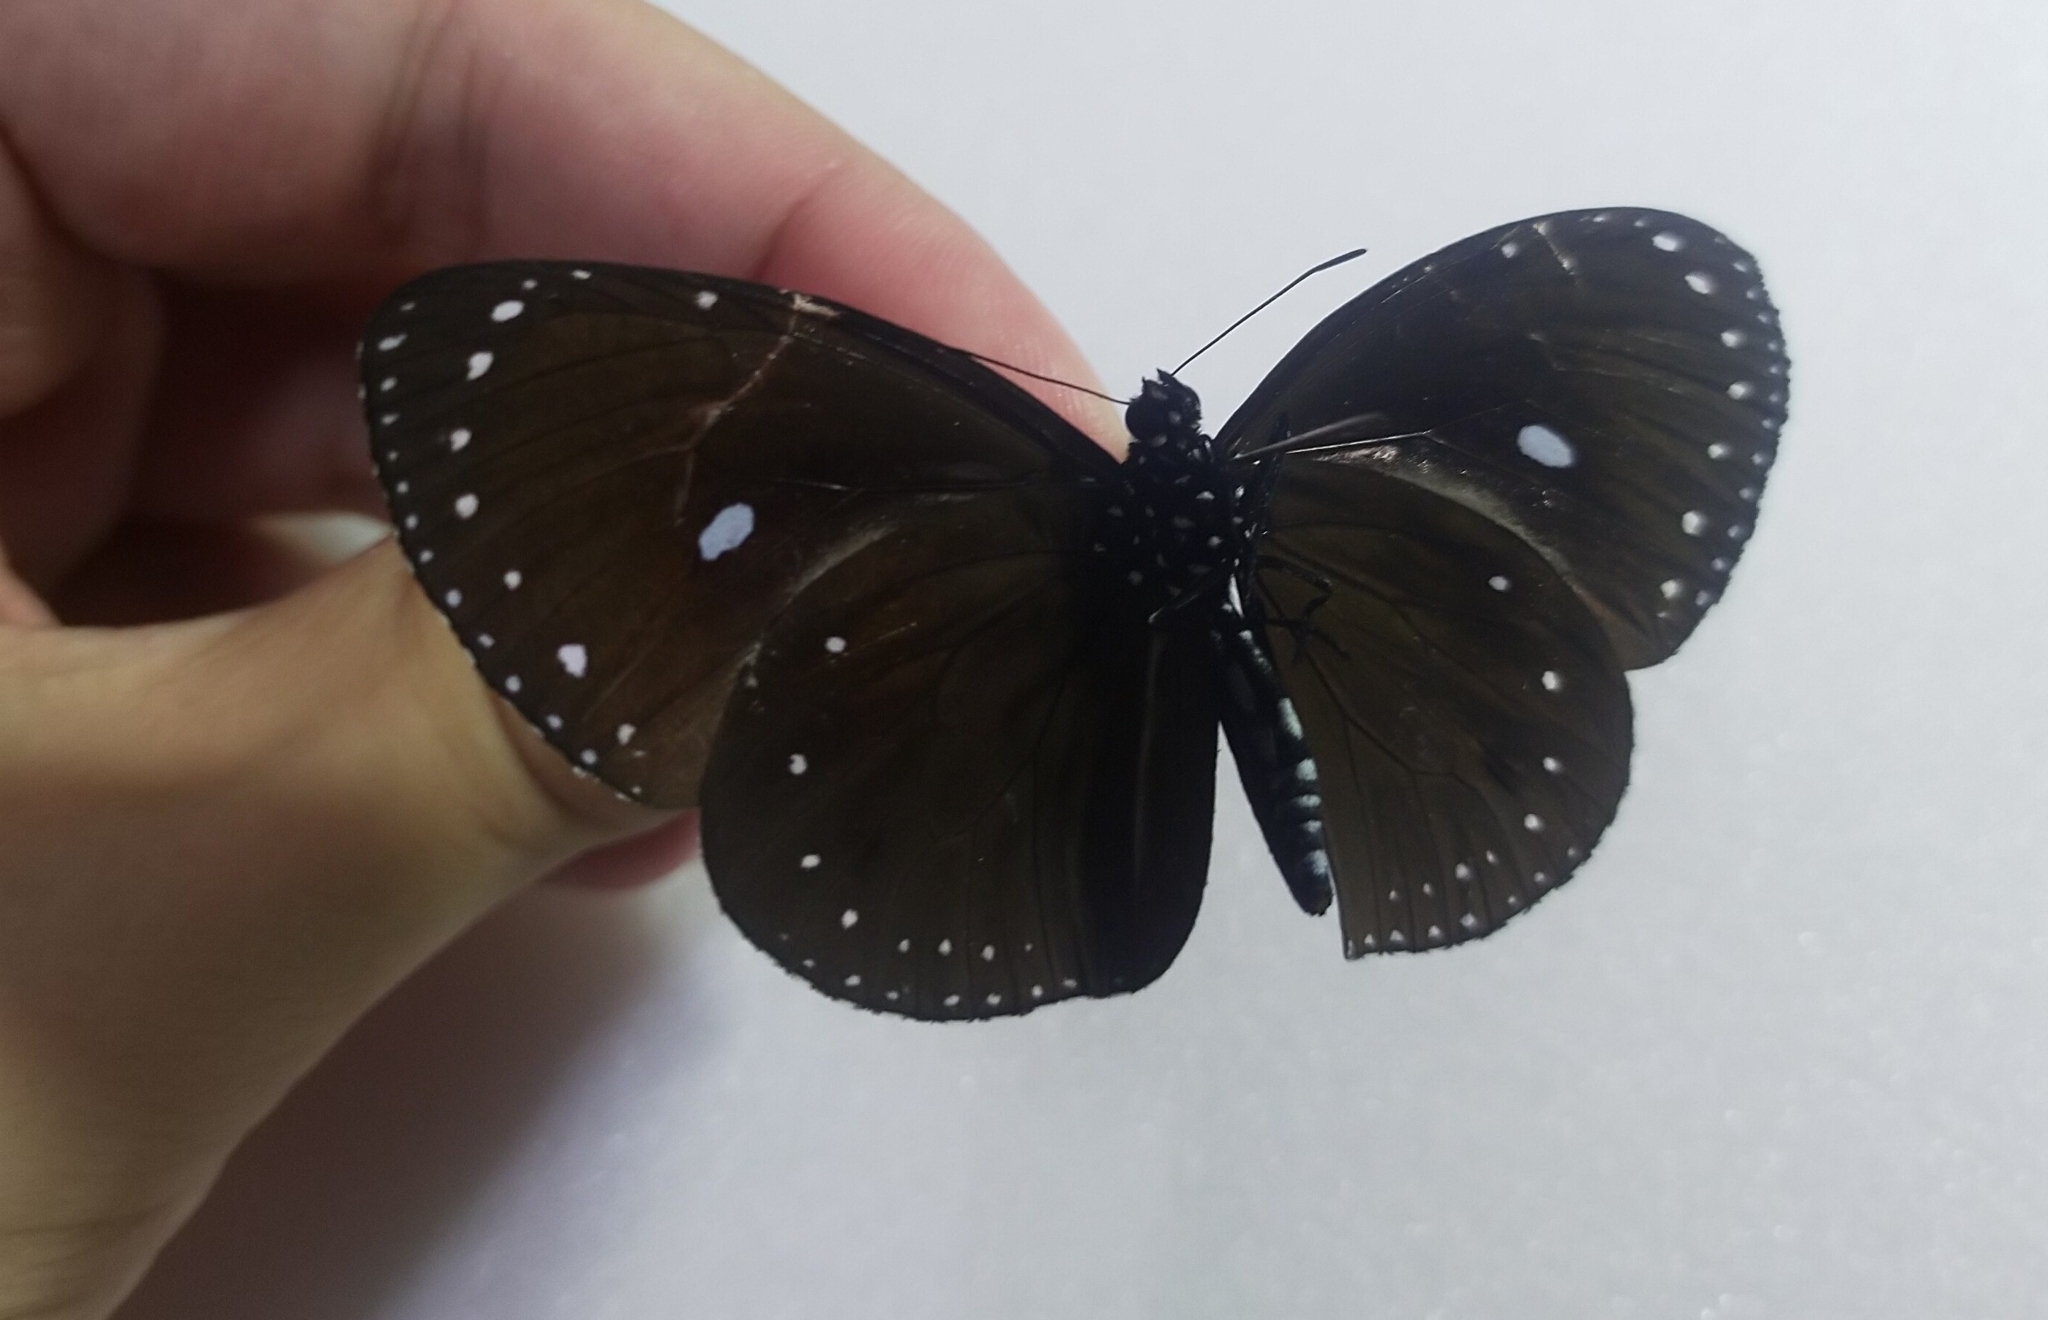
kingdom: Animalia
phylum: Arthropoda
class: Insecta
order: Lepidoptera
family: Nymphalidae
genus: Euploea
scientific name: Euploea tulliolus
